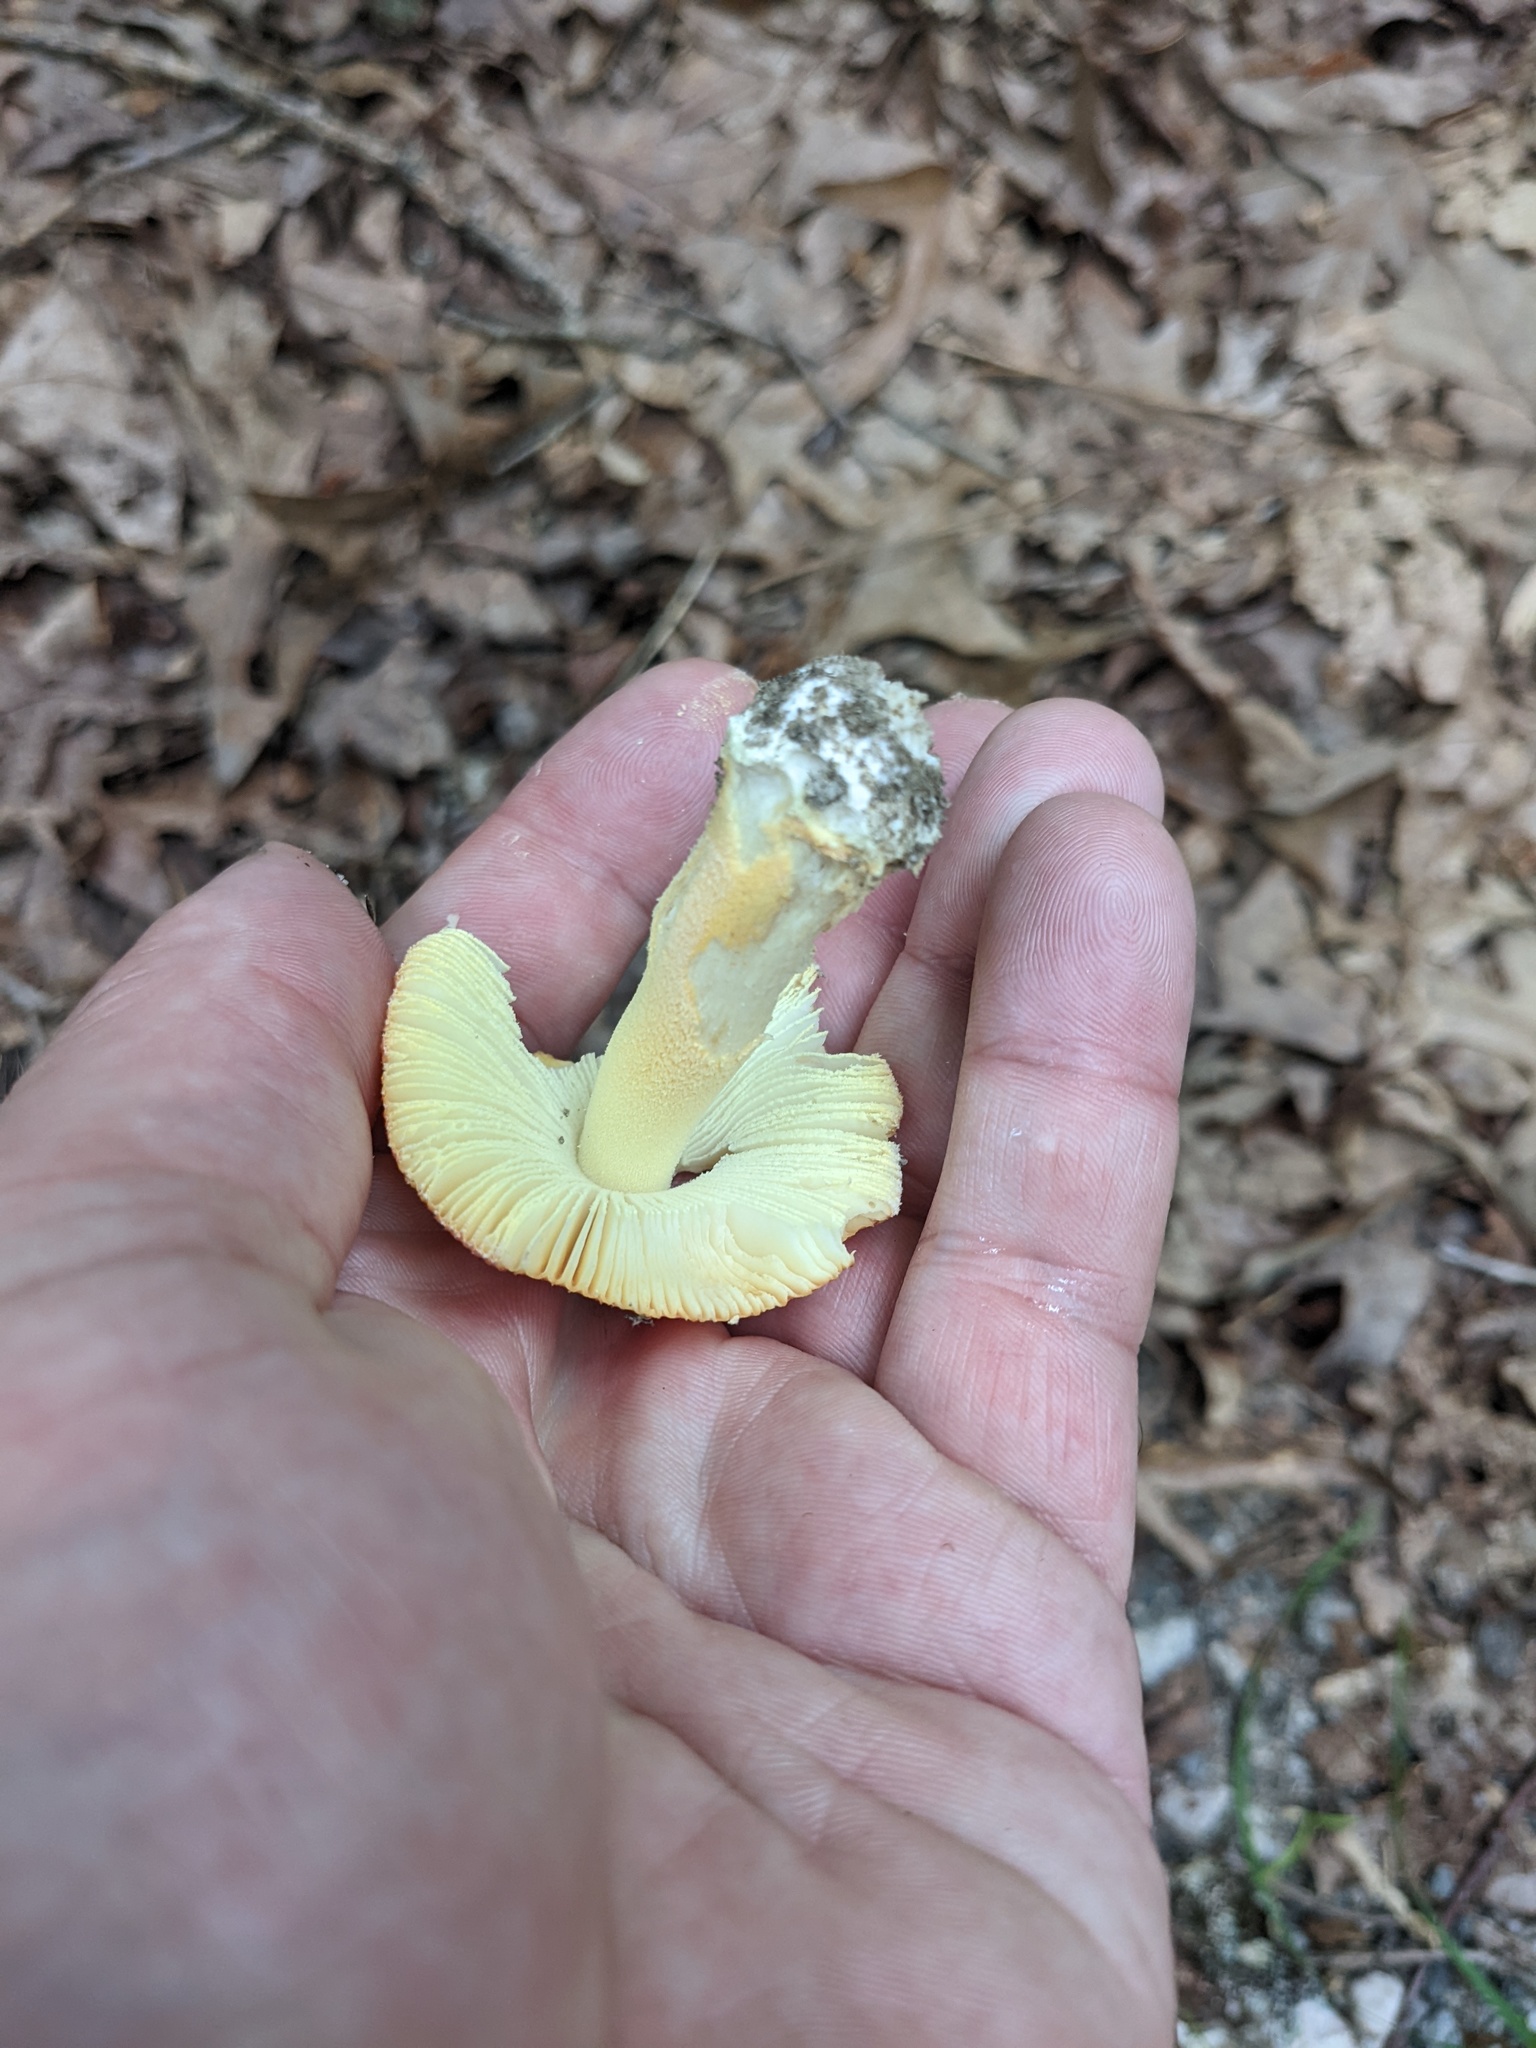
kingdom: Fungi
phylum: Basidiomycota
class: Agaricomycetes
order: Agaricales
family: Amanitaceae
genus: Amanita
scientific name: Amanita parcivolvata
